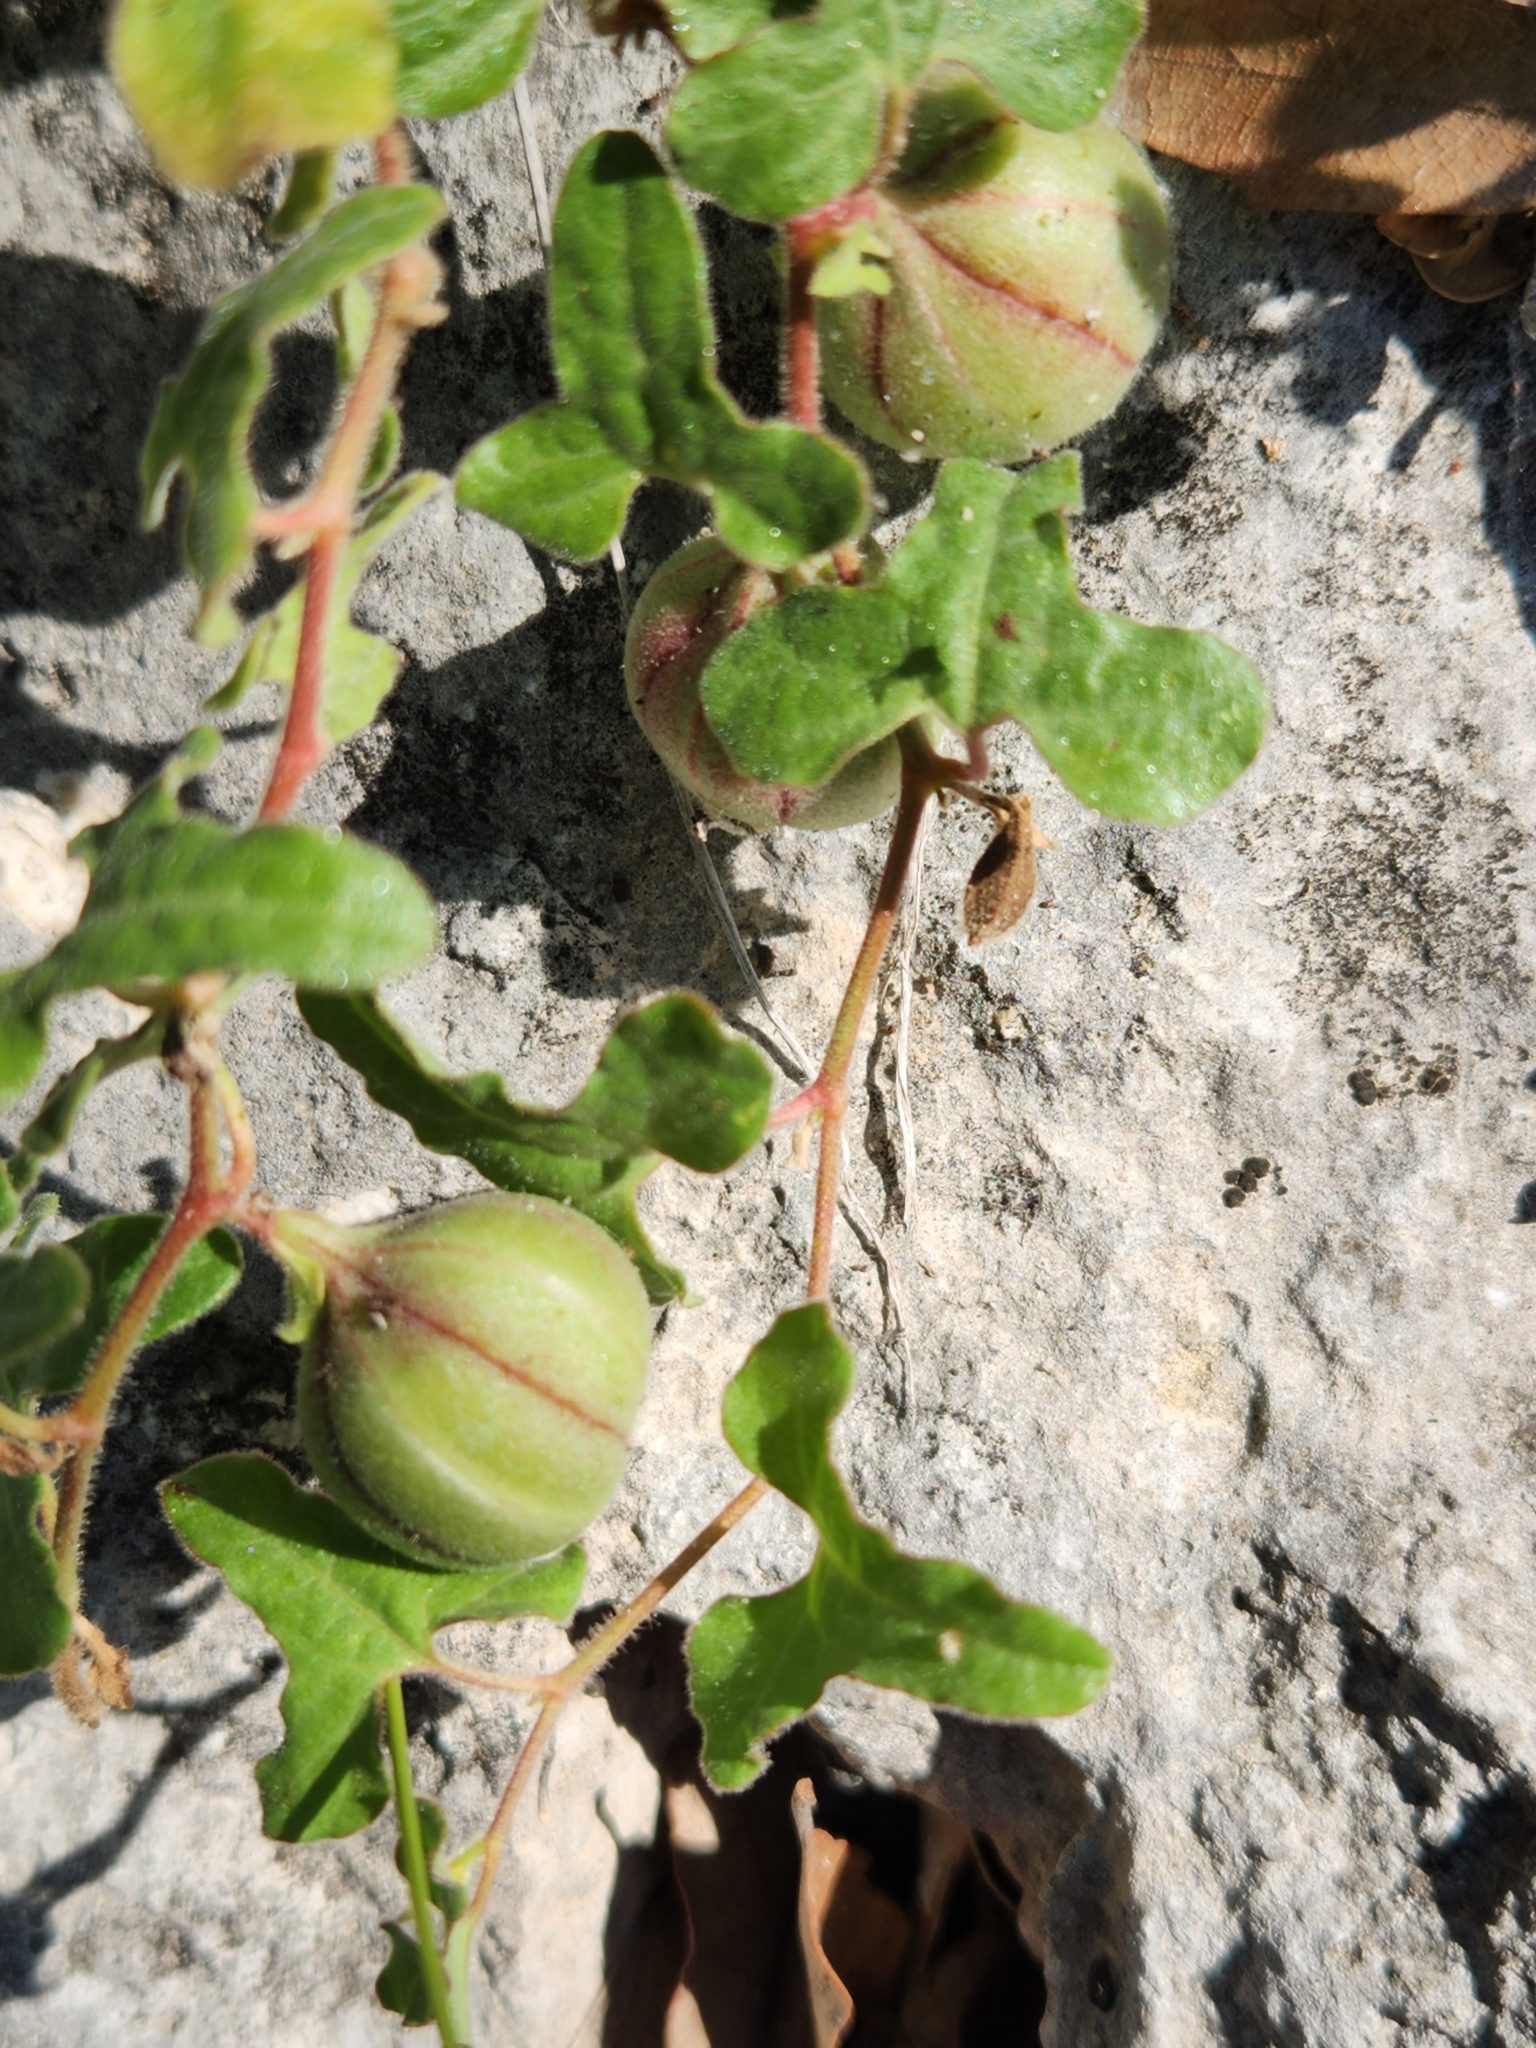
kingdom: Plantae
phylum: Tracheophyta
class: Magnoliopsida
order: Piperales
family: Aristolochiaceae
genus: Aristolochia
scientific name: Aristolochia coryi
